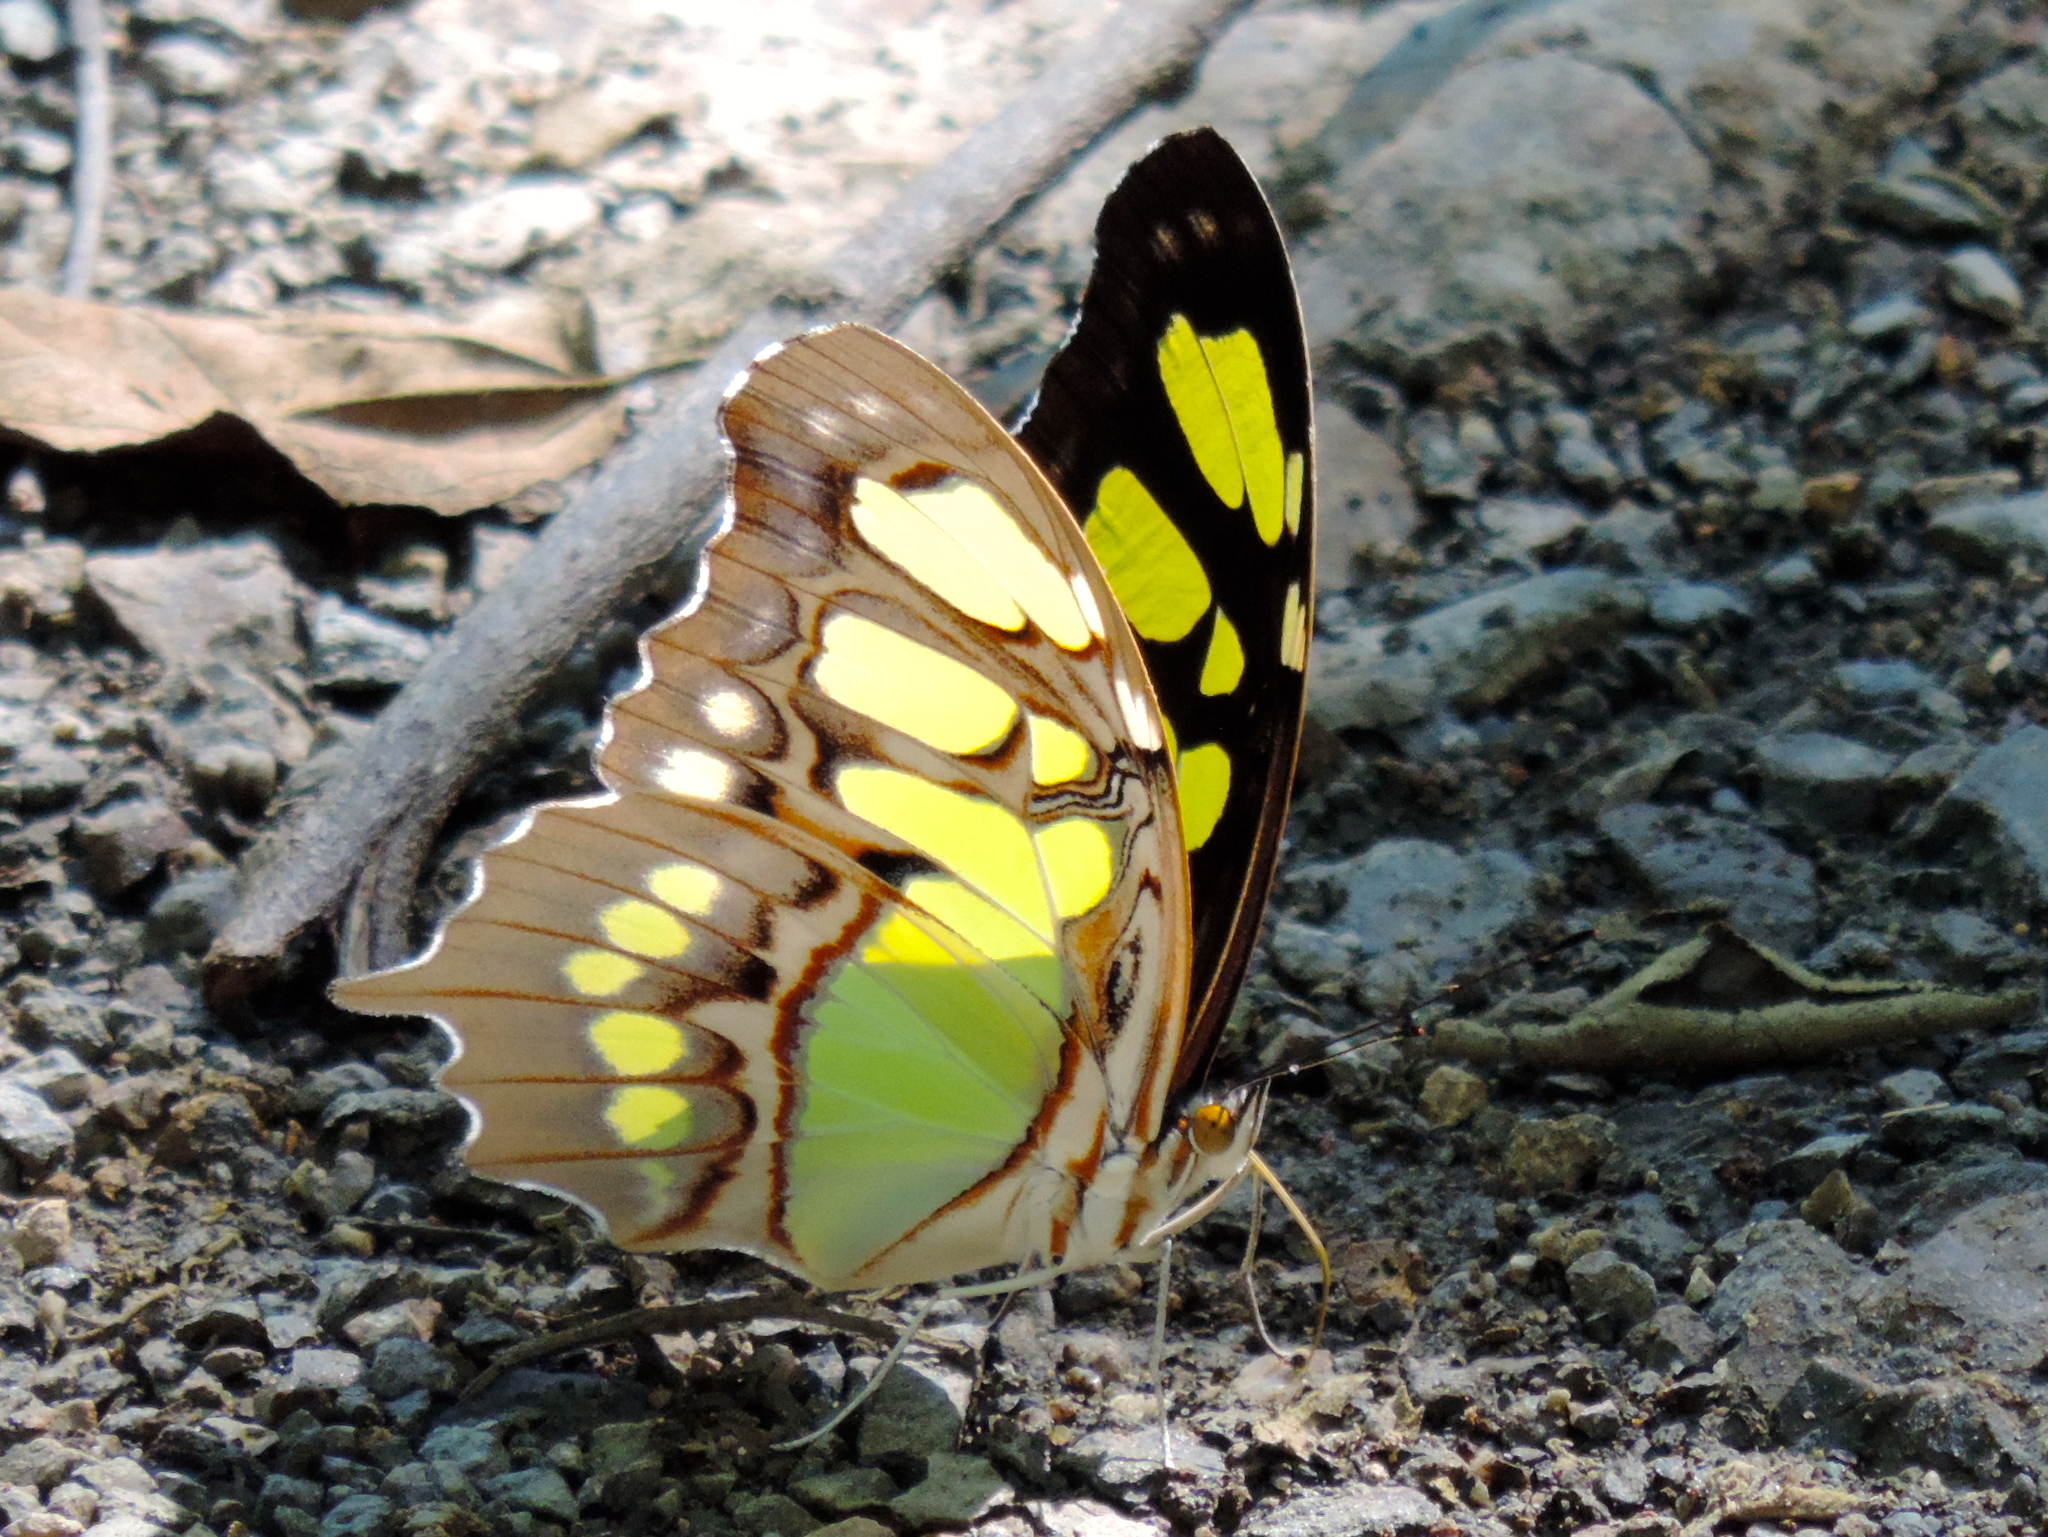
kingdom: Animalia
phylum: Arthropoda
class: Insecta
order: Lepidoptera
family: Nymphalidae
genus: Siproeta
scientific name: Siproeta stelenes
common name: Malachite
